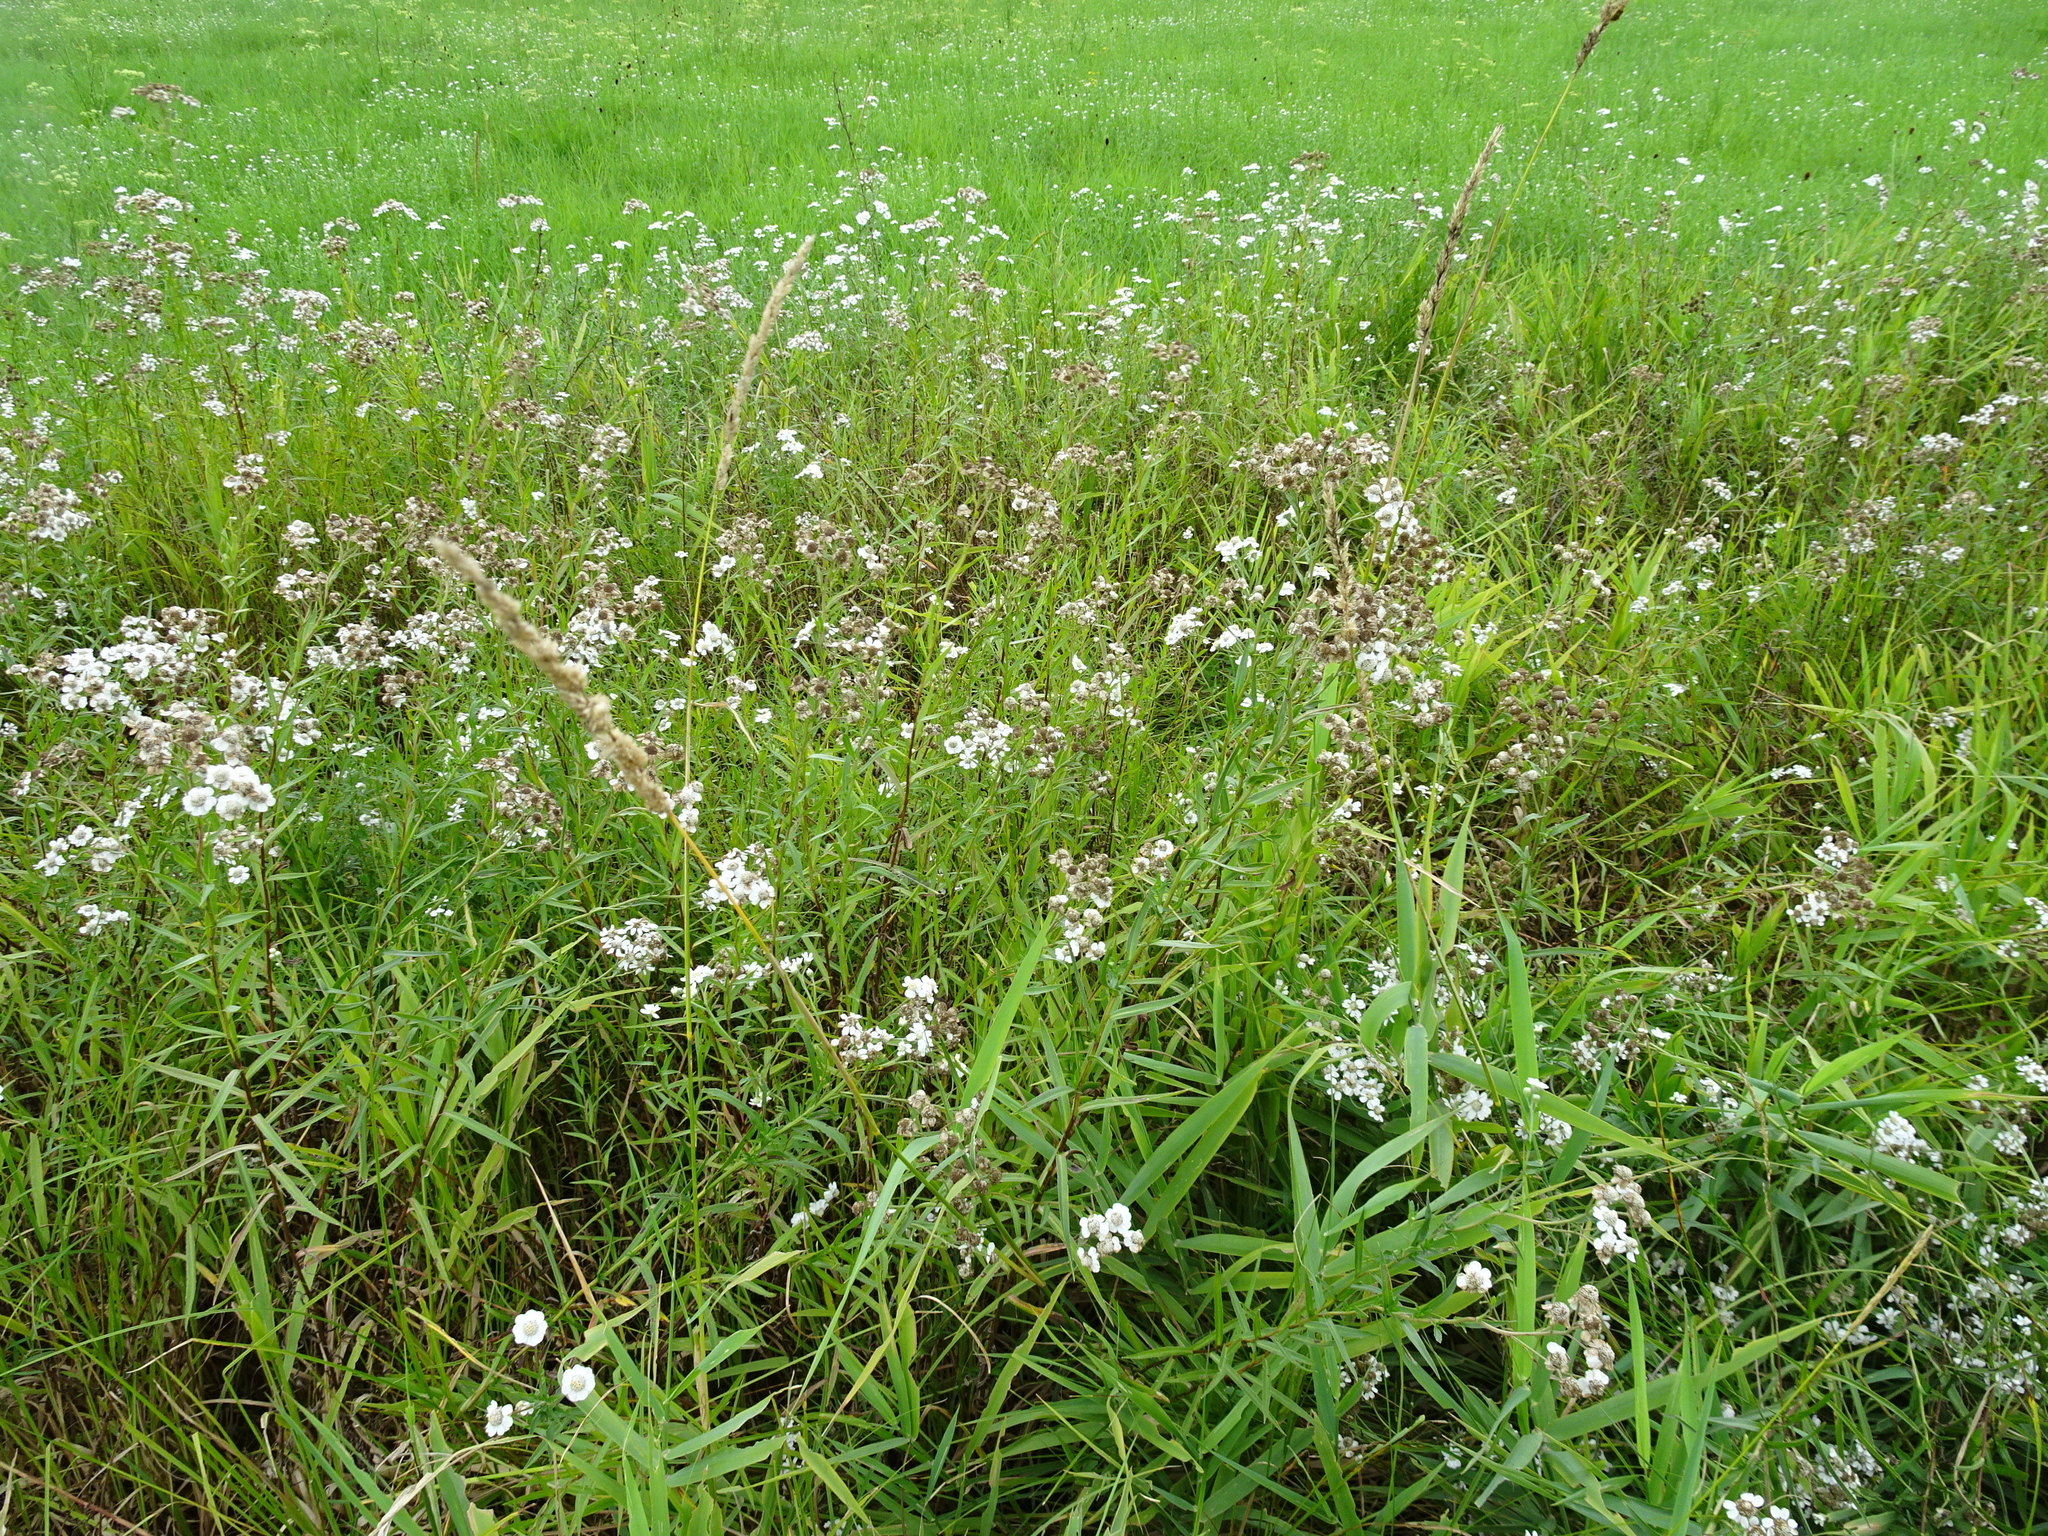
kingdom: Plantae
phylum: Tracheophyta
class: Magnoliopsida
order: Asterales
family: Asteraceae
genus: Achillea
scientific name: Achillea ptarmica
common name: Sneezeweed
